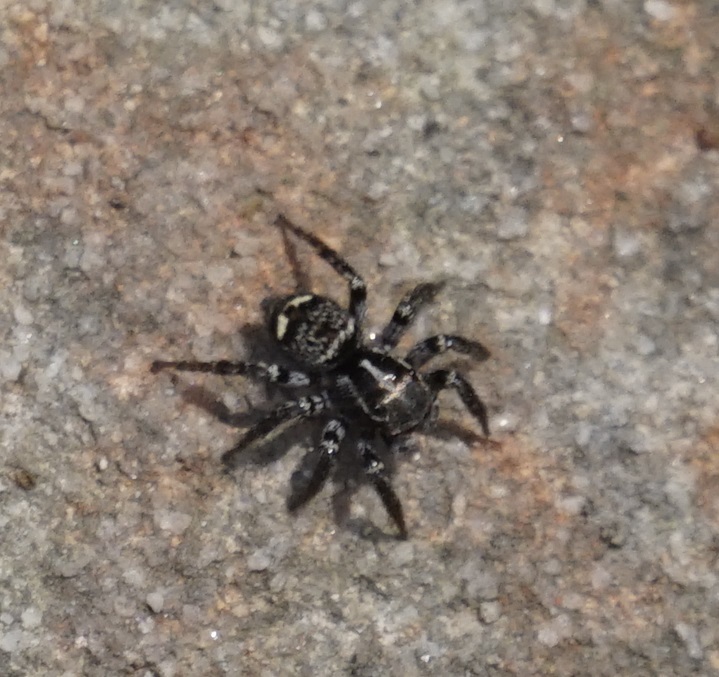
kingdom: Animalia
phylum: Arthropoda
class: Arachnida
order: Araneae
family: Salticidae
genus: Saitis
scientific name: Saitis virgatus
